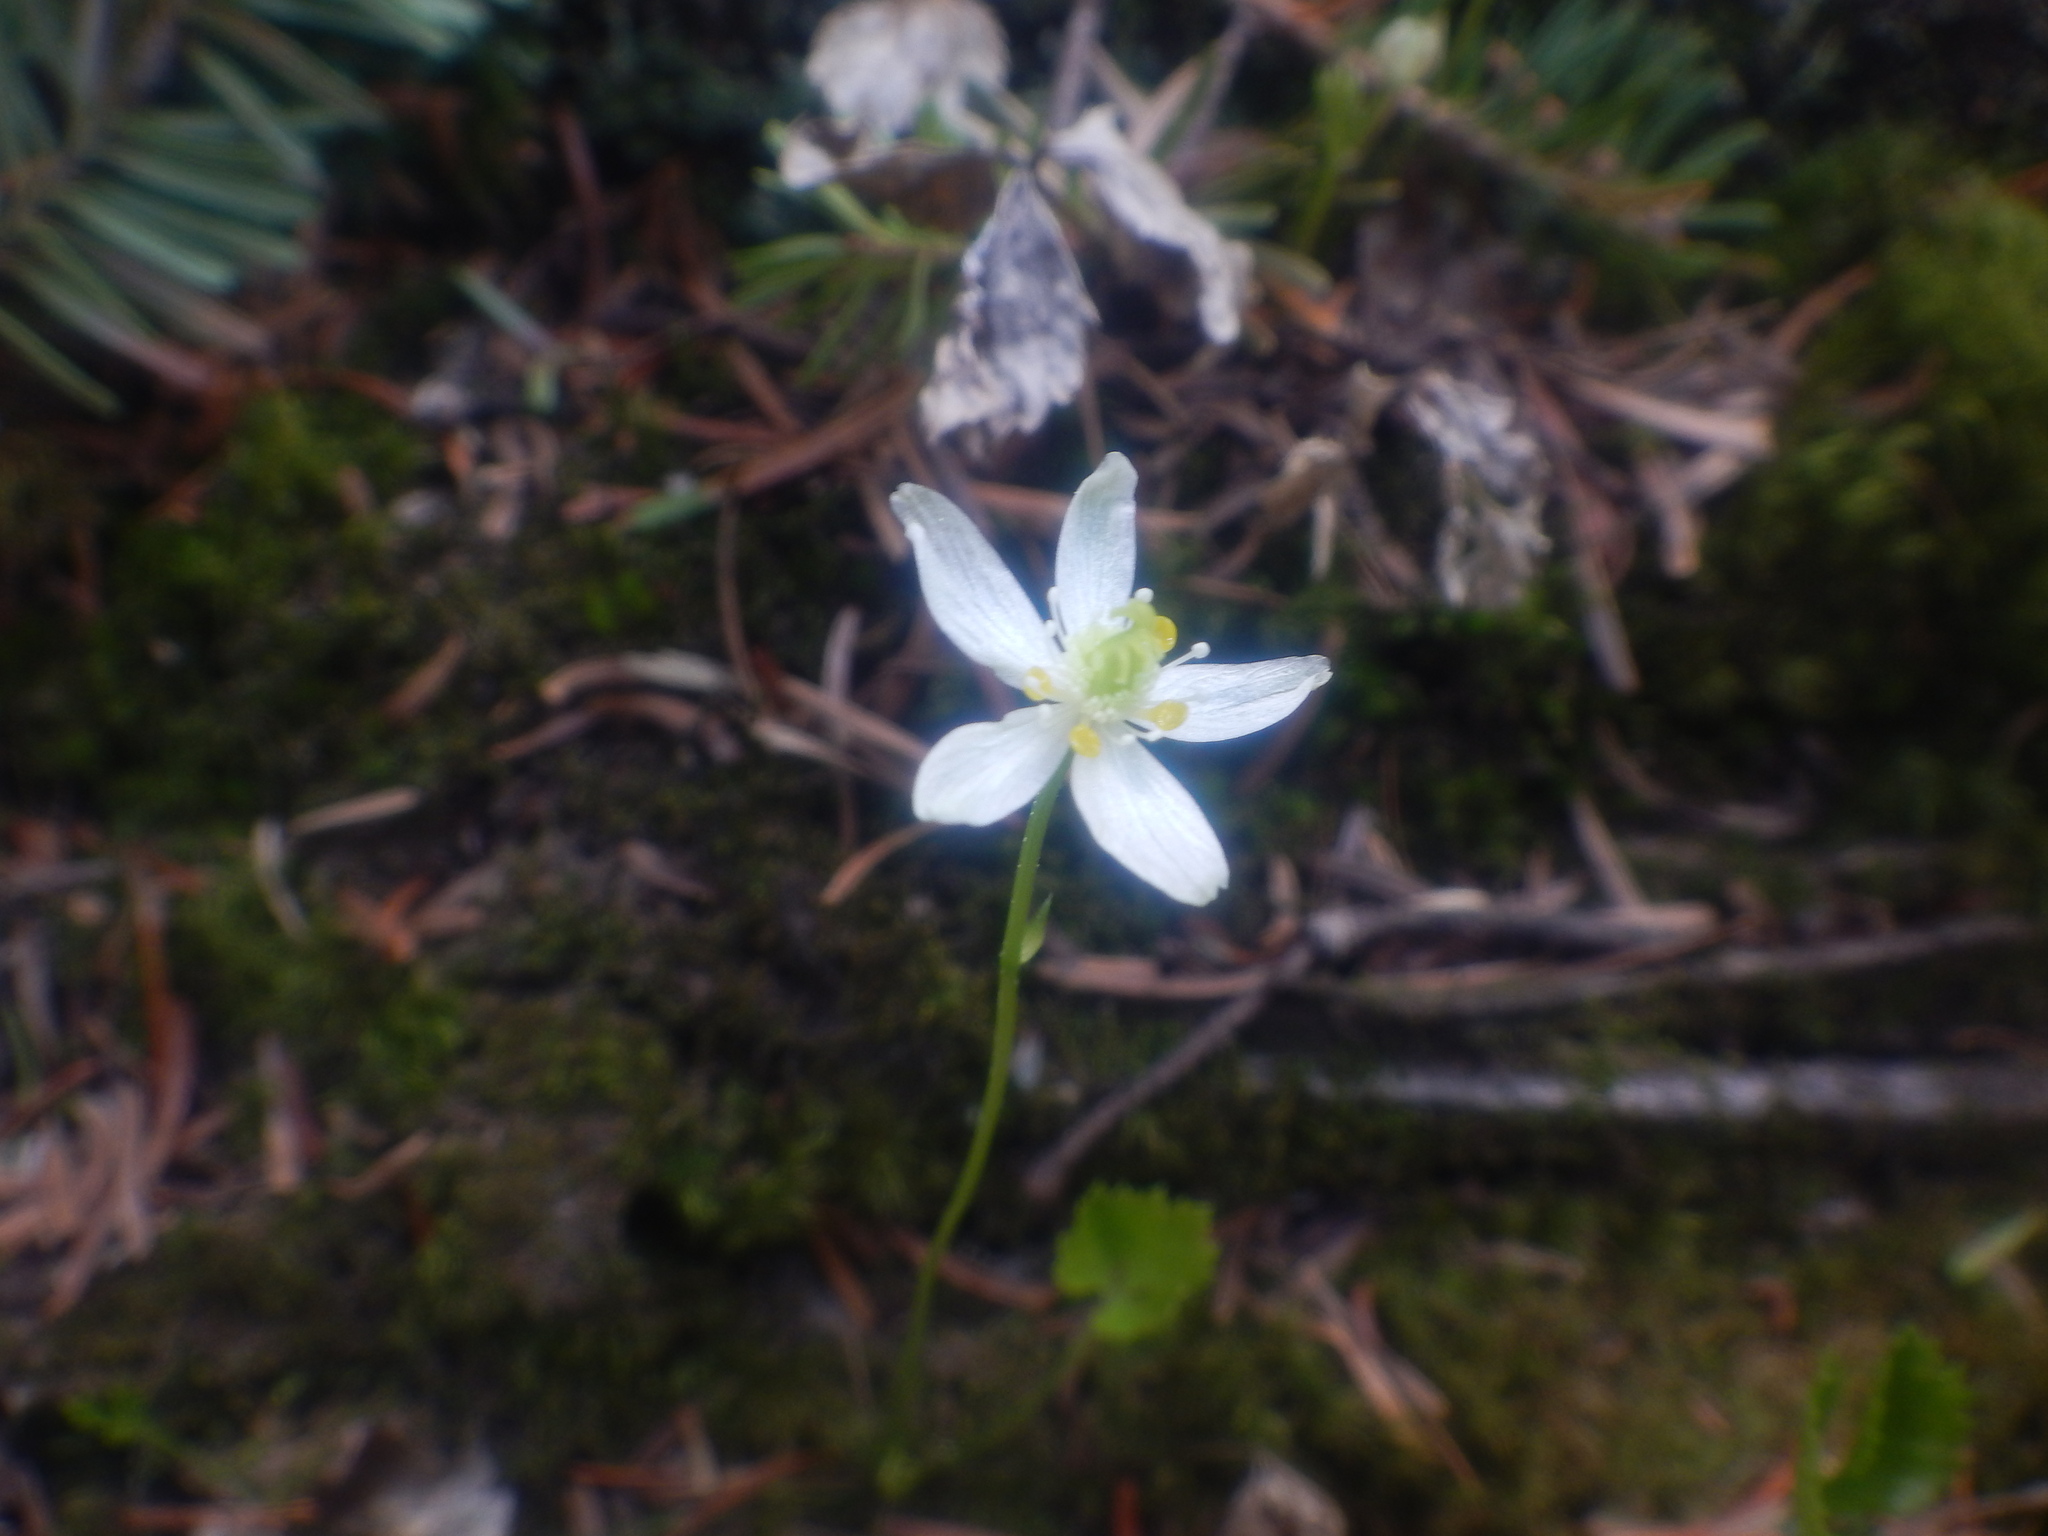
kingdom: Plantae
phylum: Tracheophyta
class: Magnoliopsida
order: Ranunculales
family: Ranunculaceae
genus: Coptis
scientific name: Coptis trifolia
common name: Canker-root
